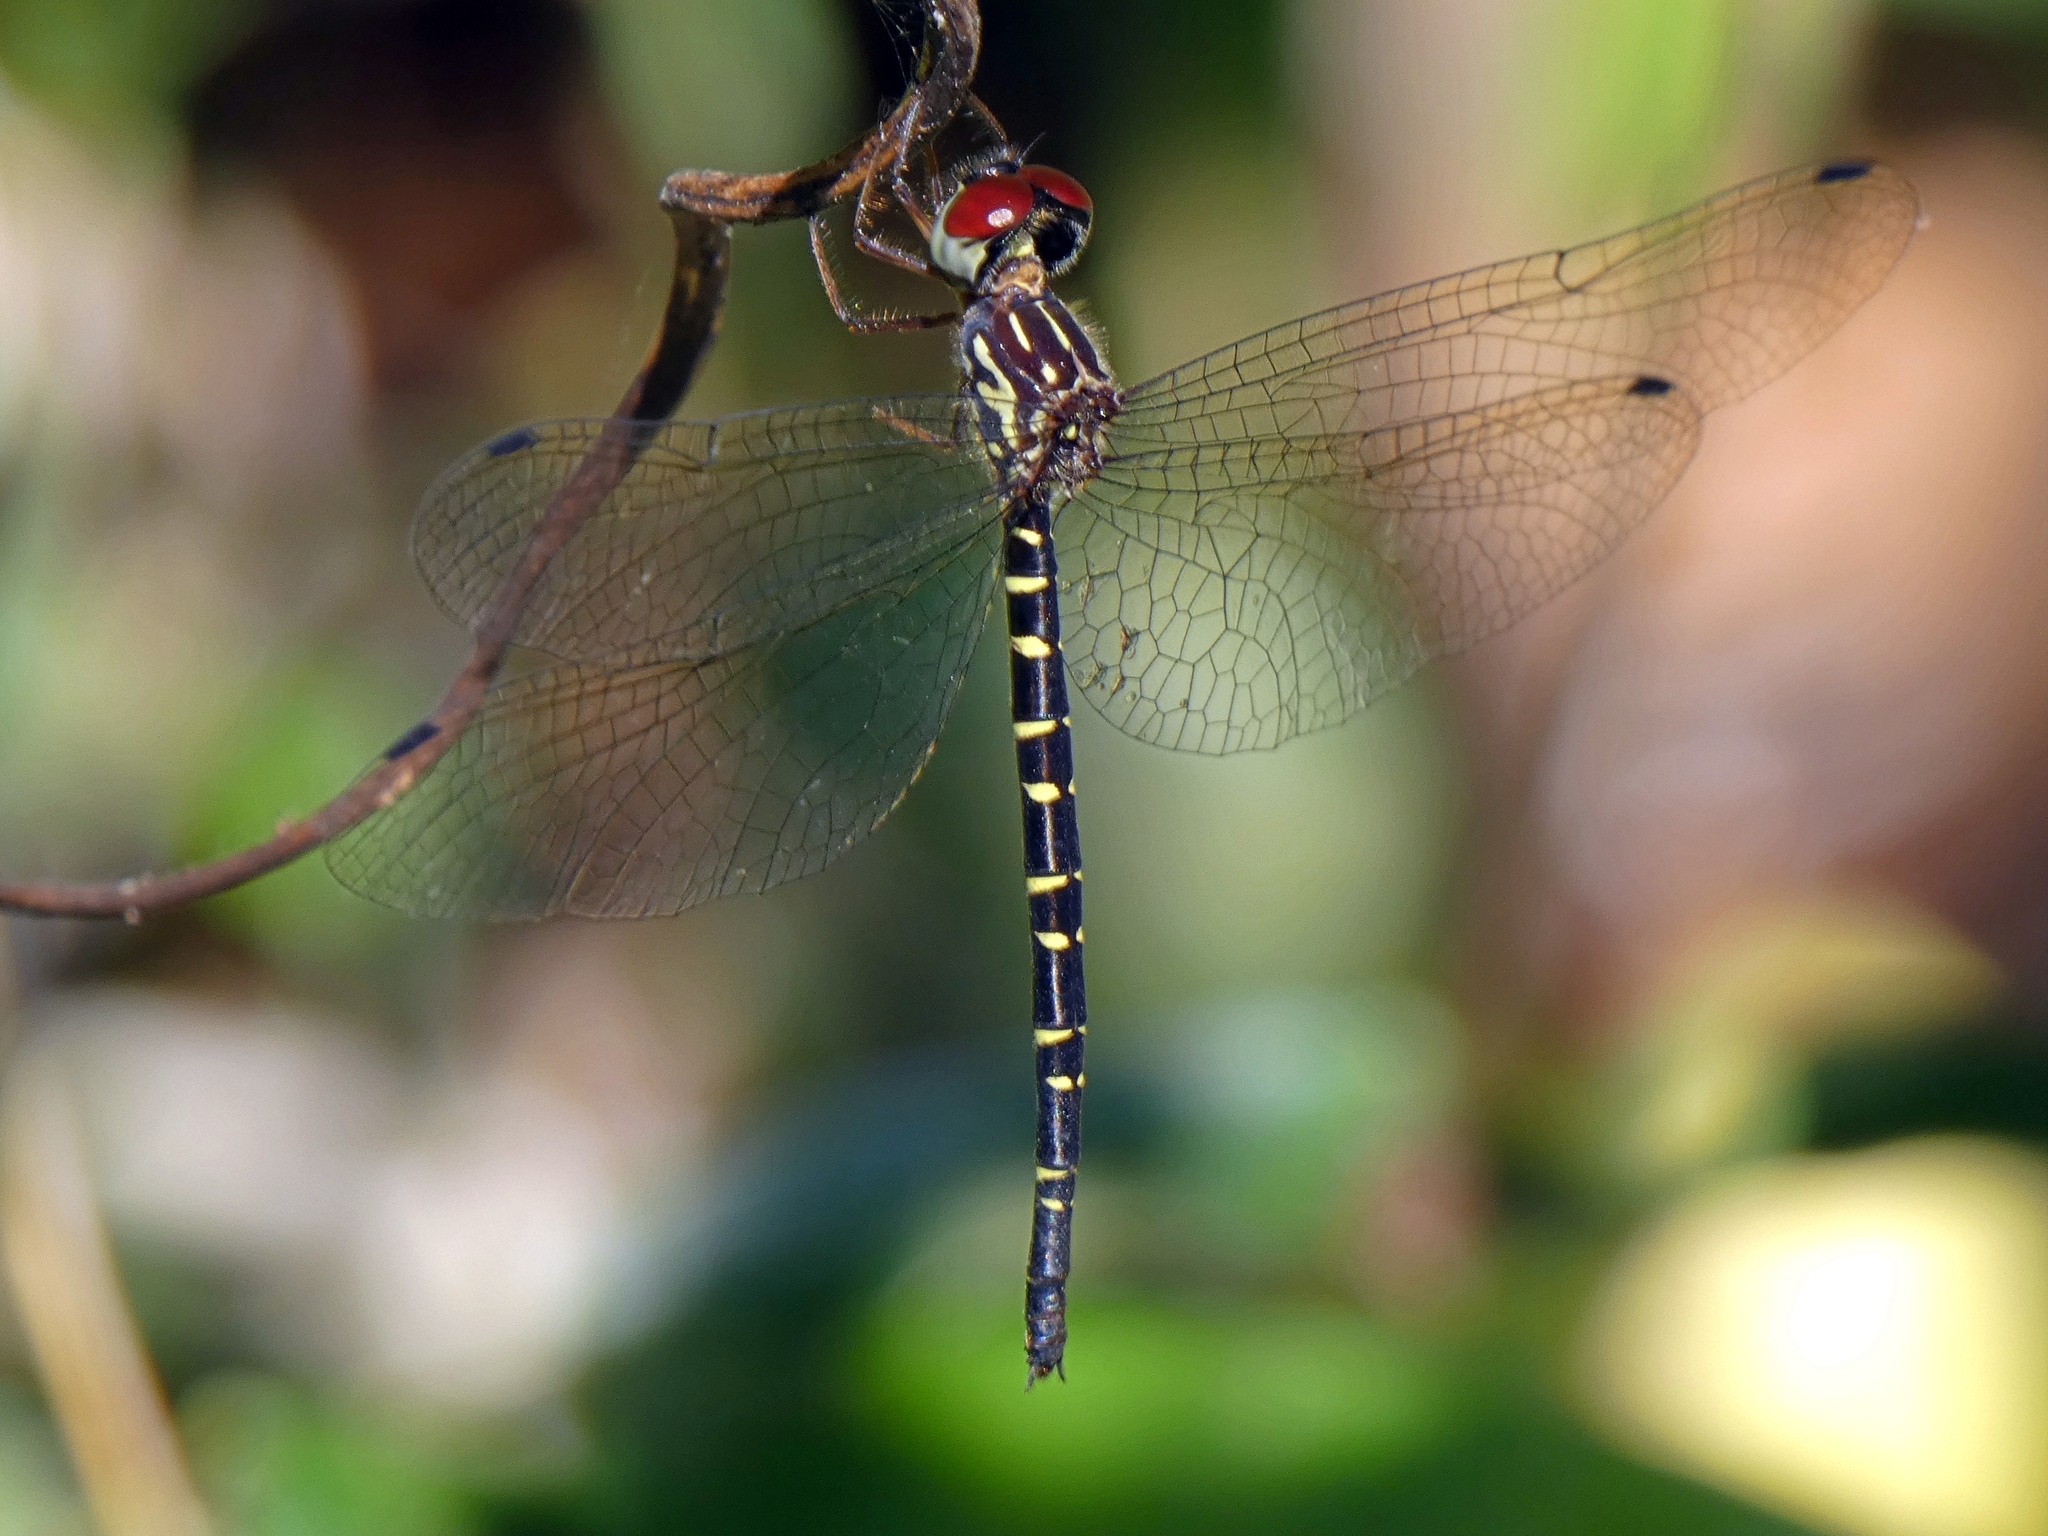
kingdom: Animalia
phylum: Arthropoda
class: Insecta
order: Odonata
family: Synthemistidae
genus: Choristhemis
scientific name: Choristhemis olivei
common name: Delicate tigertail
